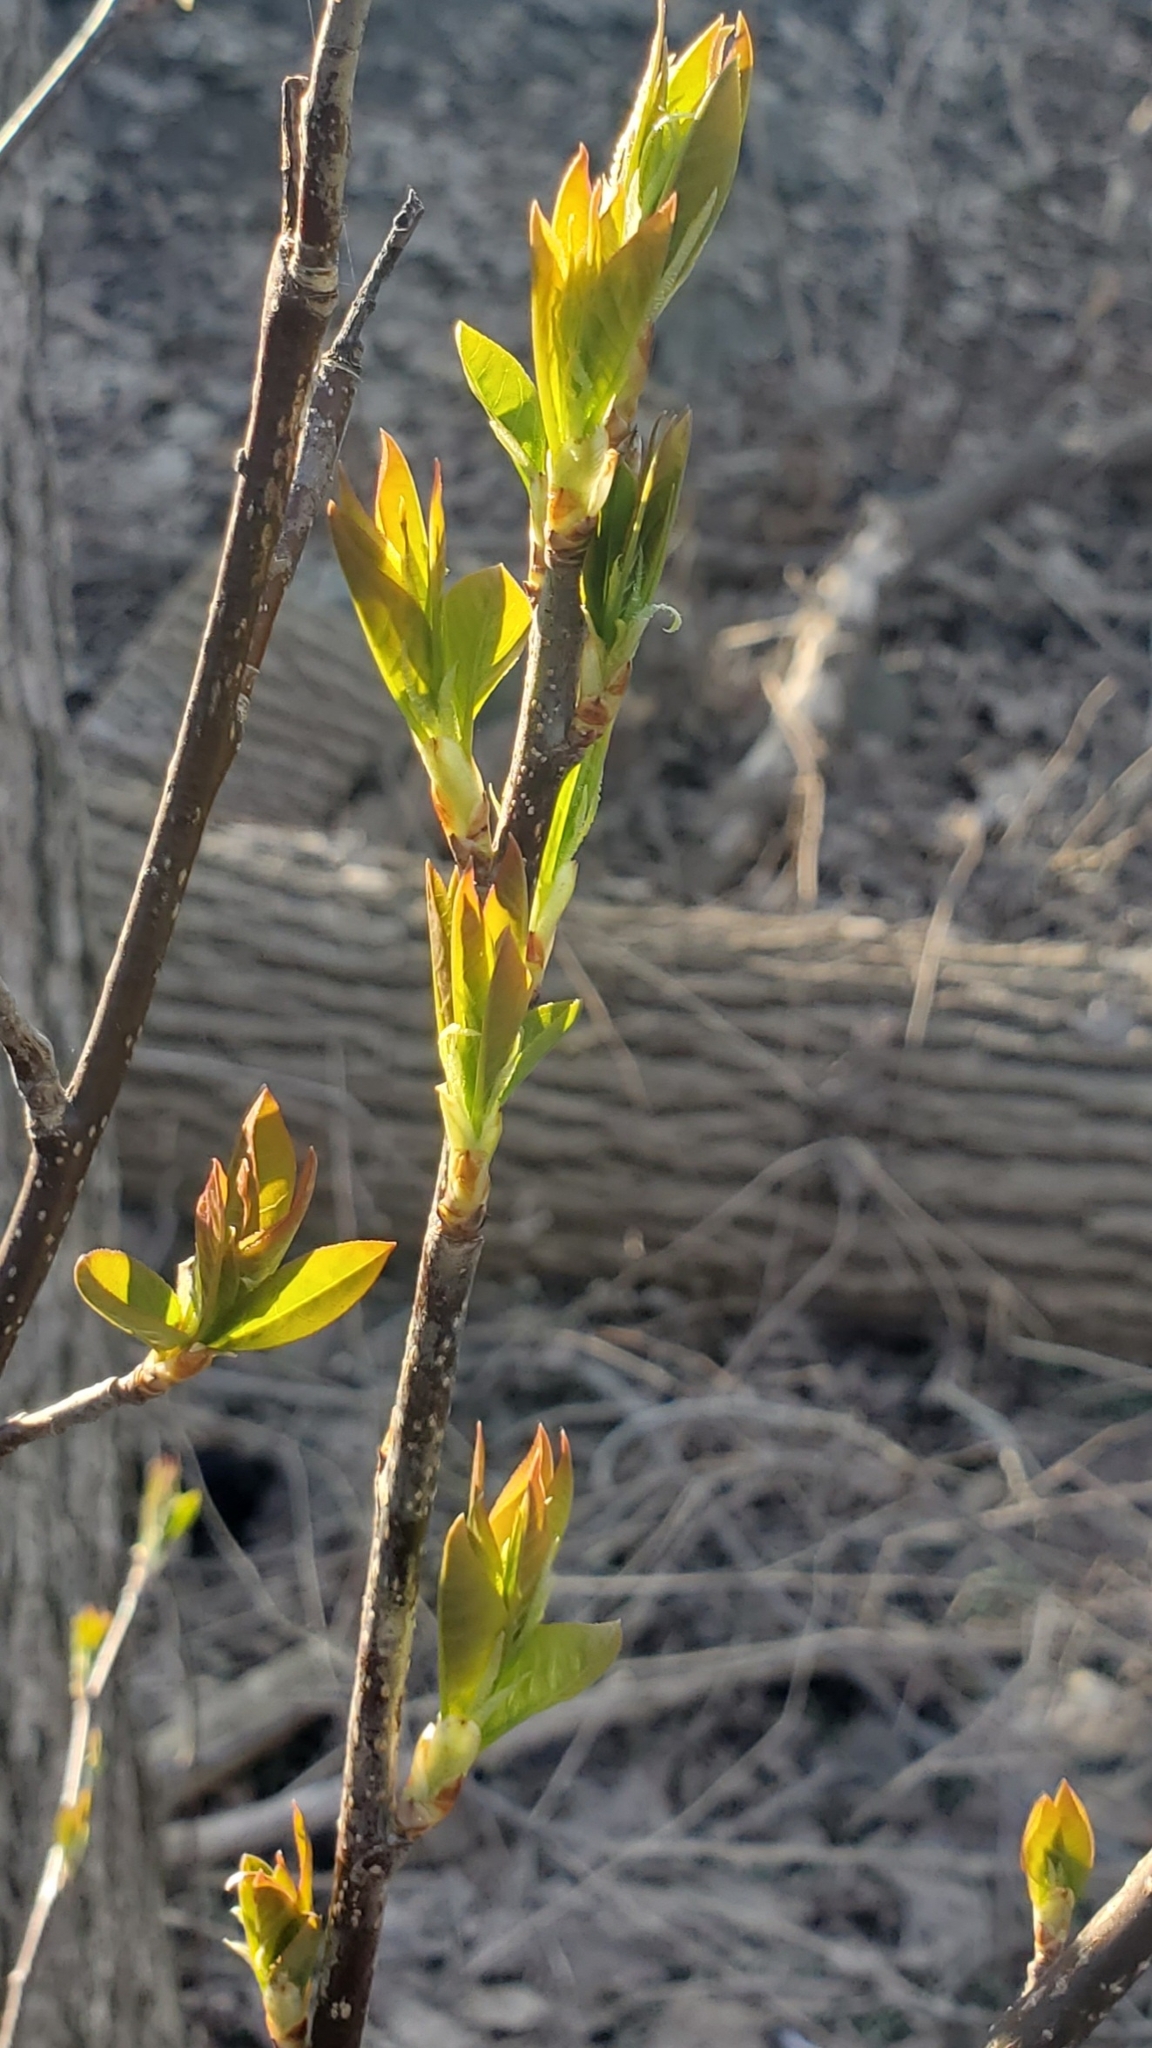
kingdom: Plantae
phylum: Tracheophyta
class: Magnoliopsida
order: Rosales
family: Rosaceae
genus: Prunus
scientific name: Prunus virginiana
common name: Chokecherry
